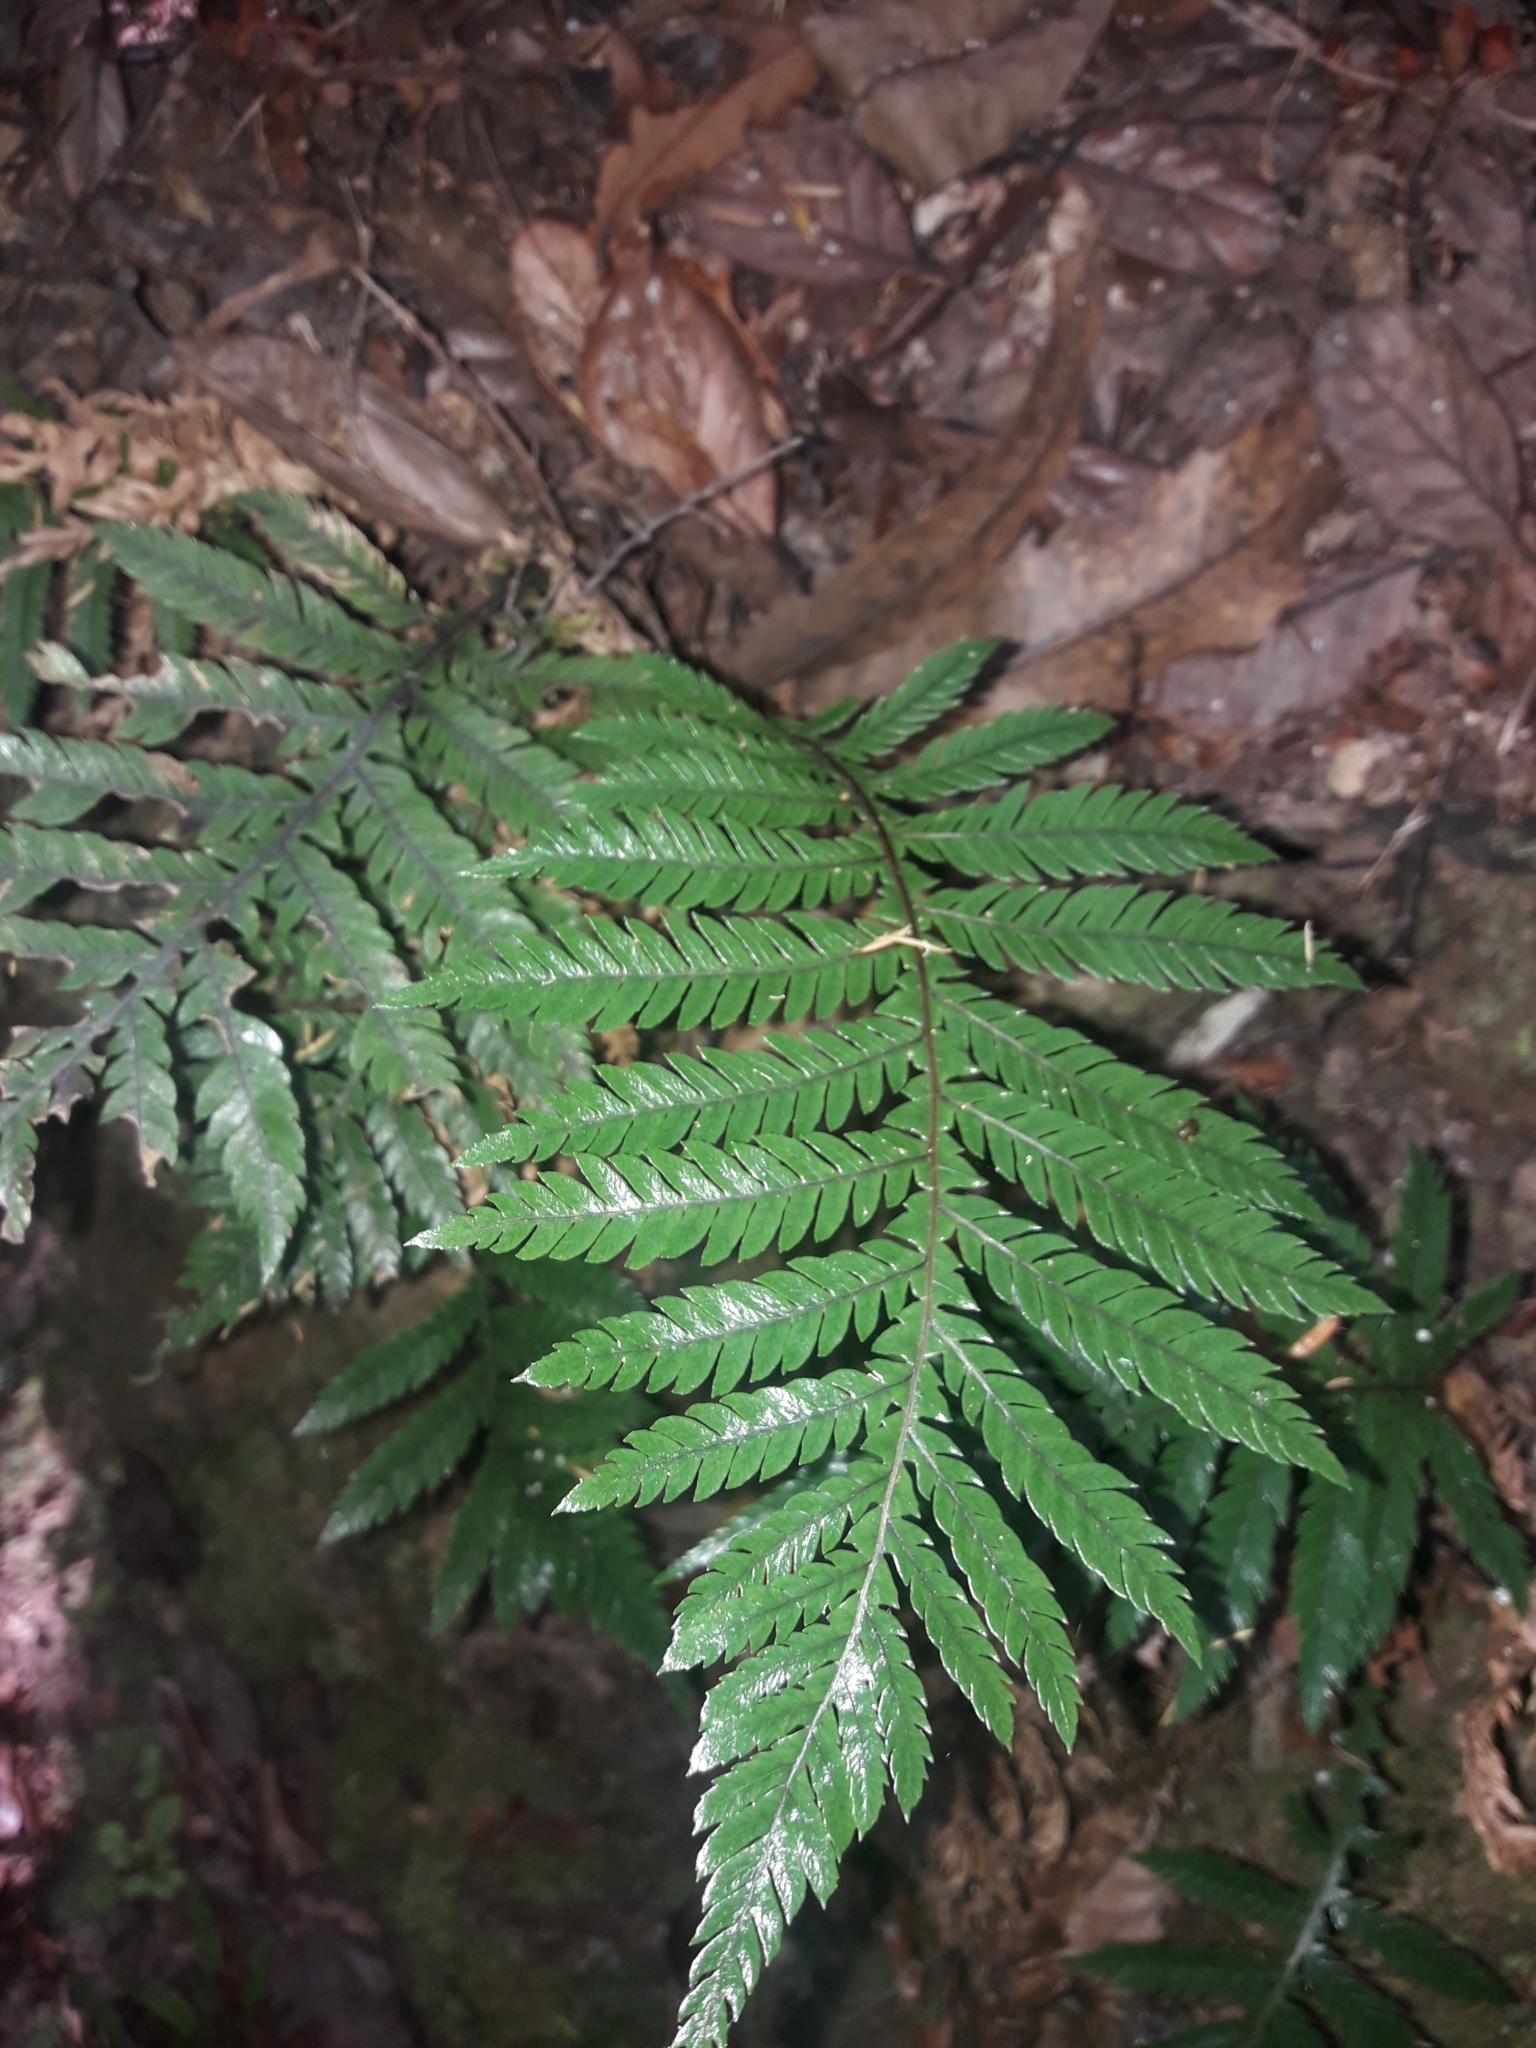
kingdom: Plantae
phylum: Tracheophyta
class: Polypodiopsida
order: Polypodiales
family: Blechnaceae
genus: Diploblechnum
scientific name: Diploblechnum fraseri
